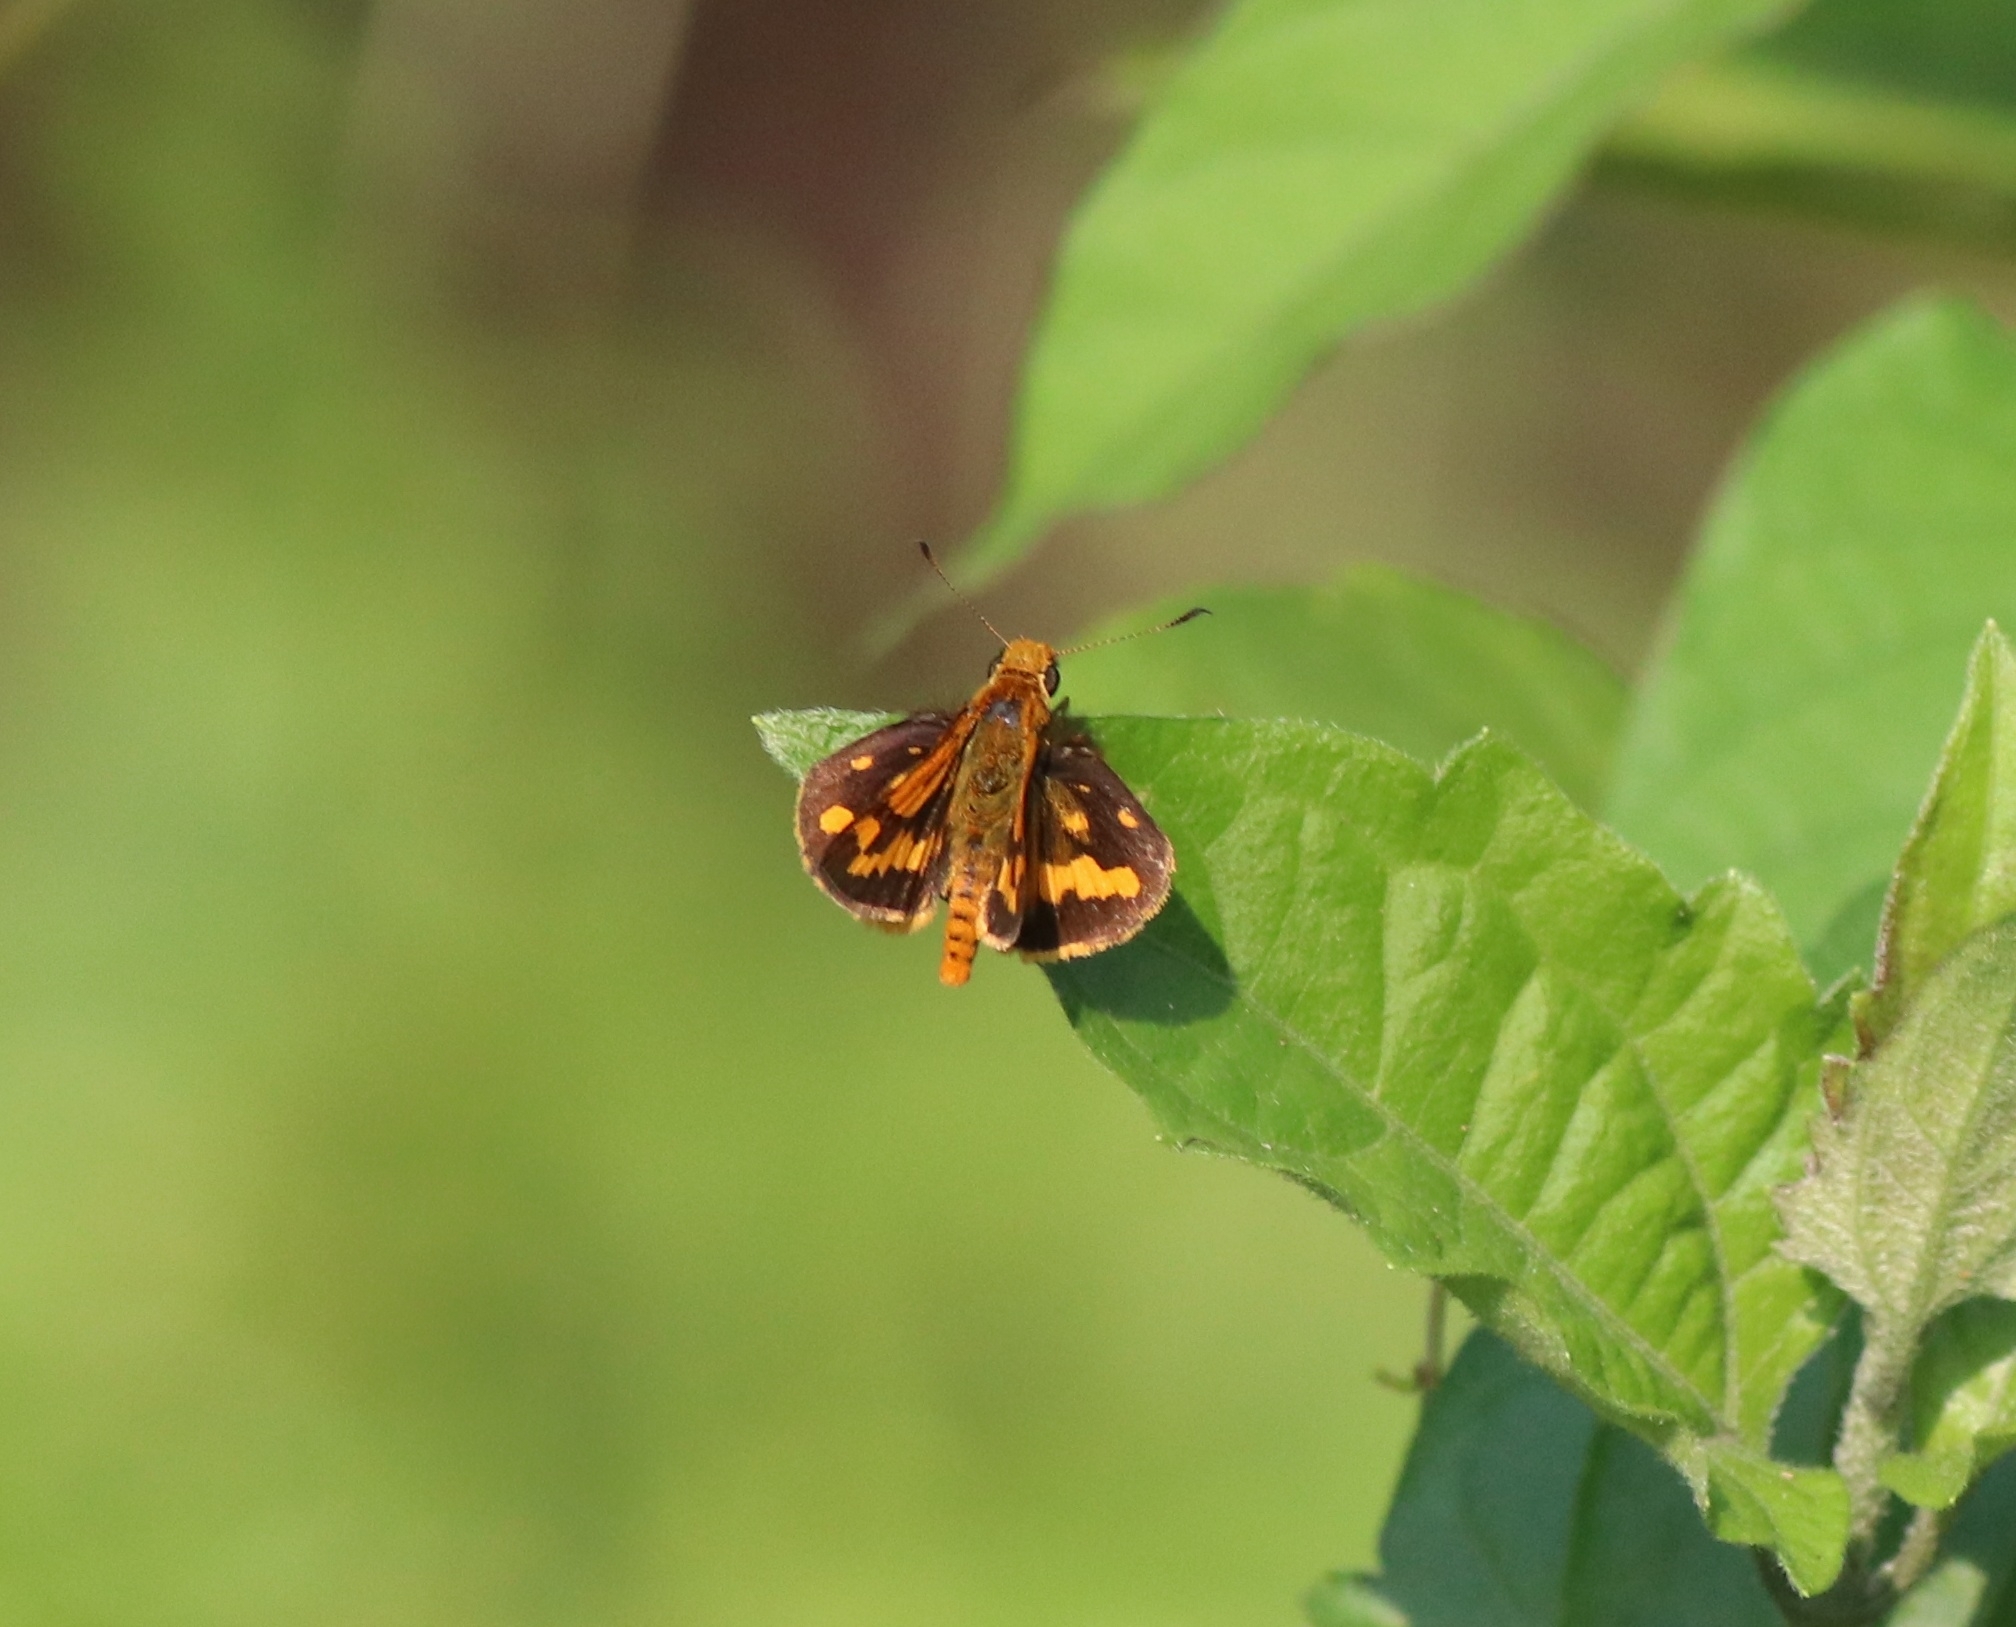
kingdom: Animalia
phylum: Arthropoda
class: Insecta
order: Lepidoptera
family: Hesperiidae
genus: Potanthus
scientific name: Potanthus pseudomaesa
